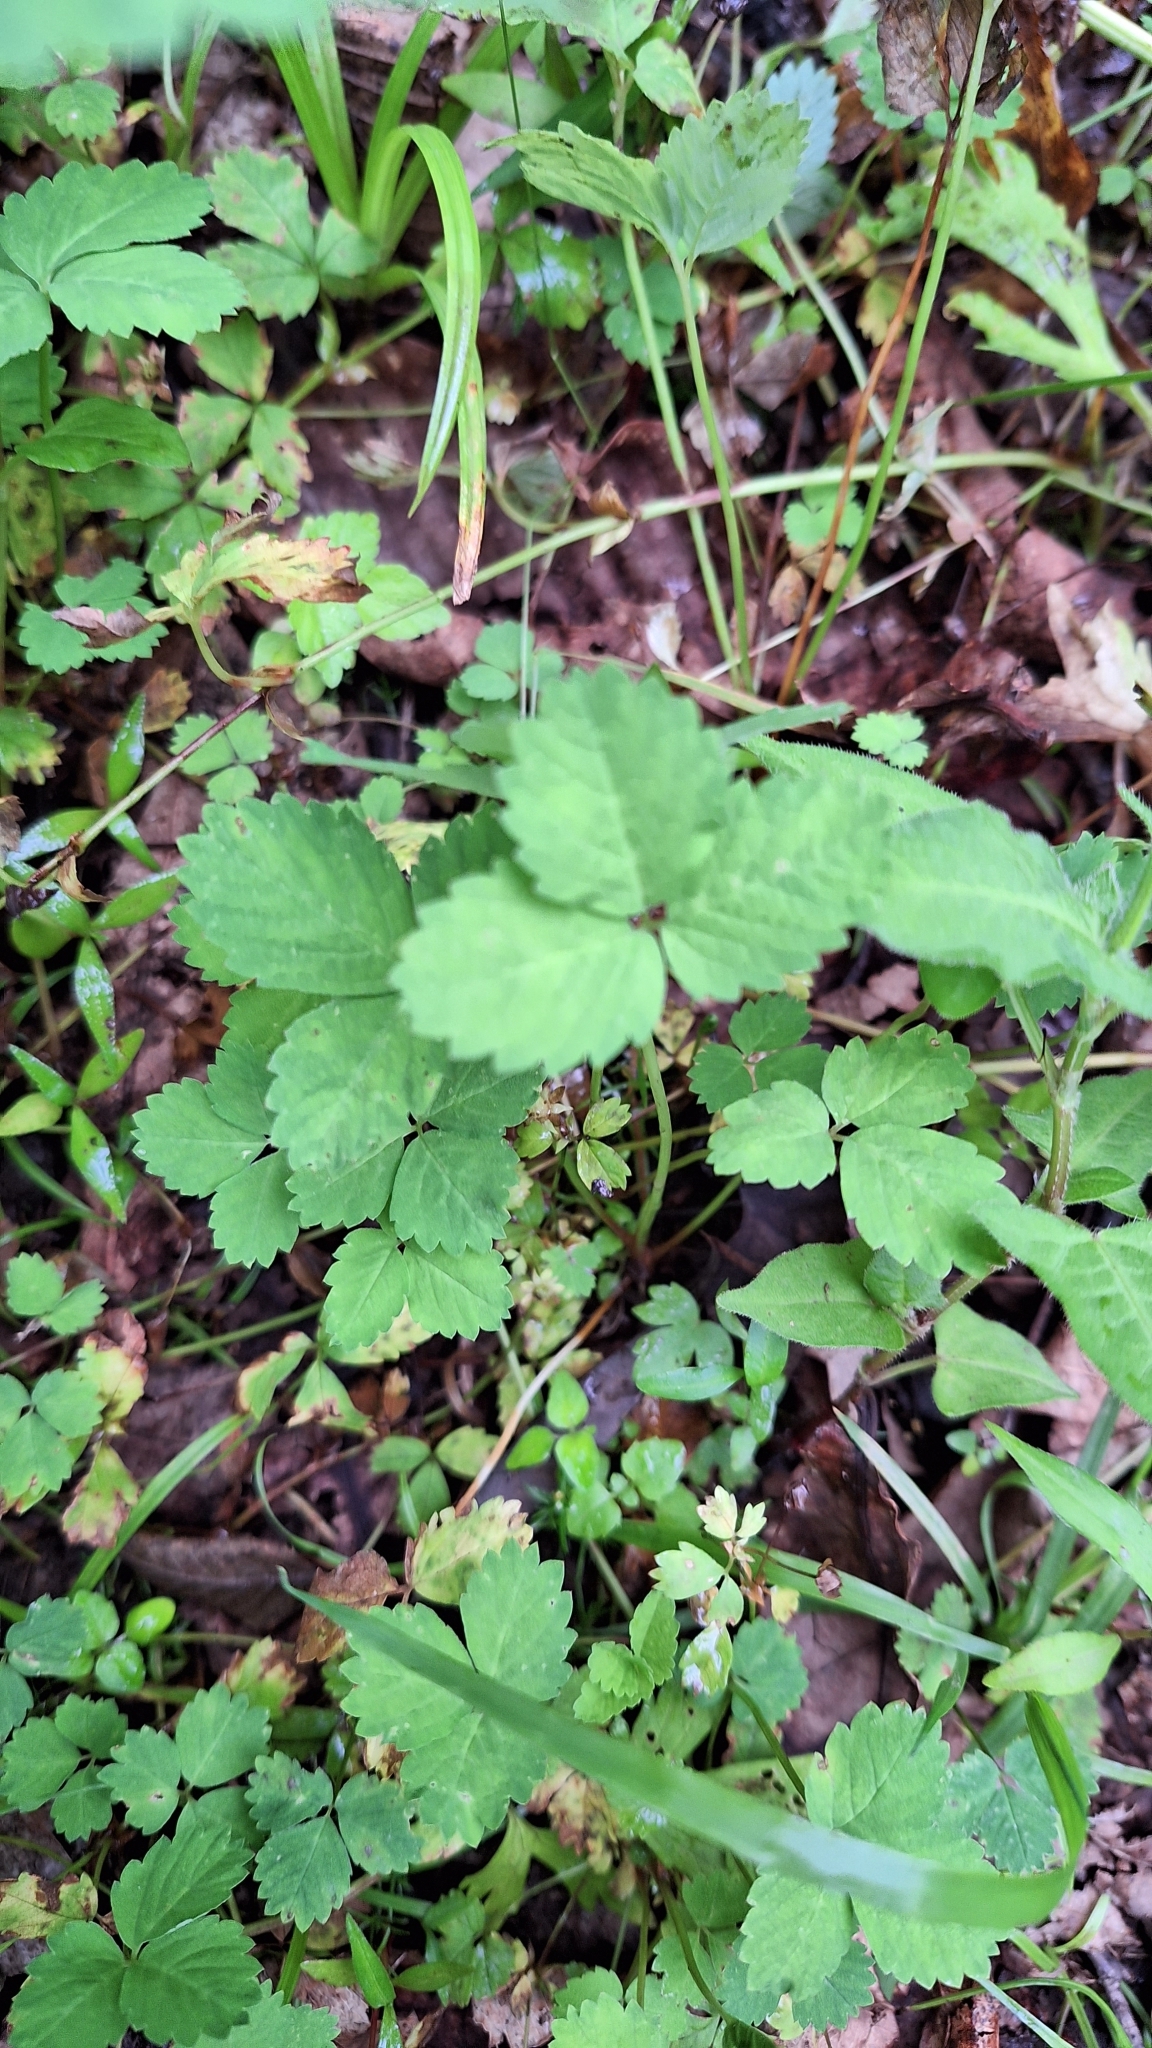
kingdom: Plantae
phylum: Tracheophyta
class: Magnoliopsida
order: Rosales
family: Rosaceae
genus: Potentilla
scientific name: Potentilla centigrana
